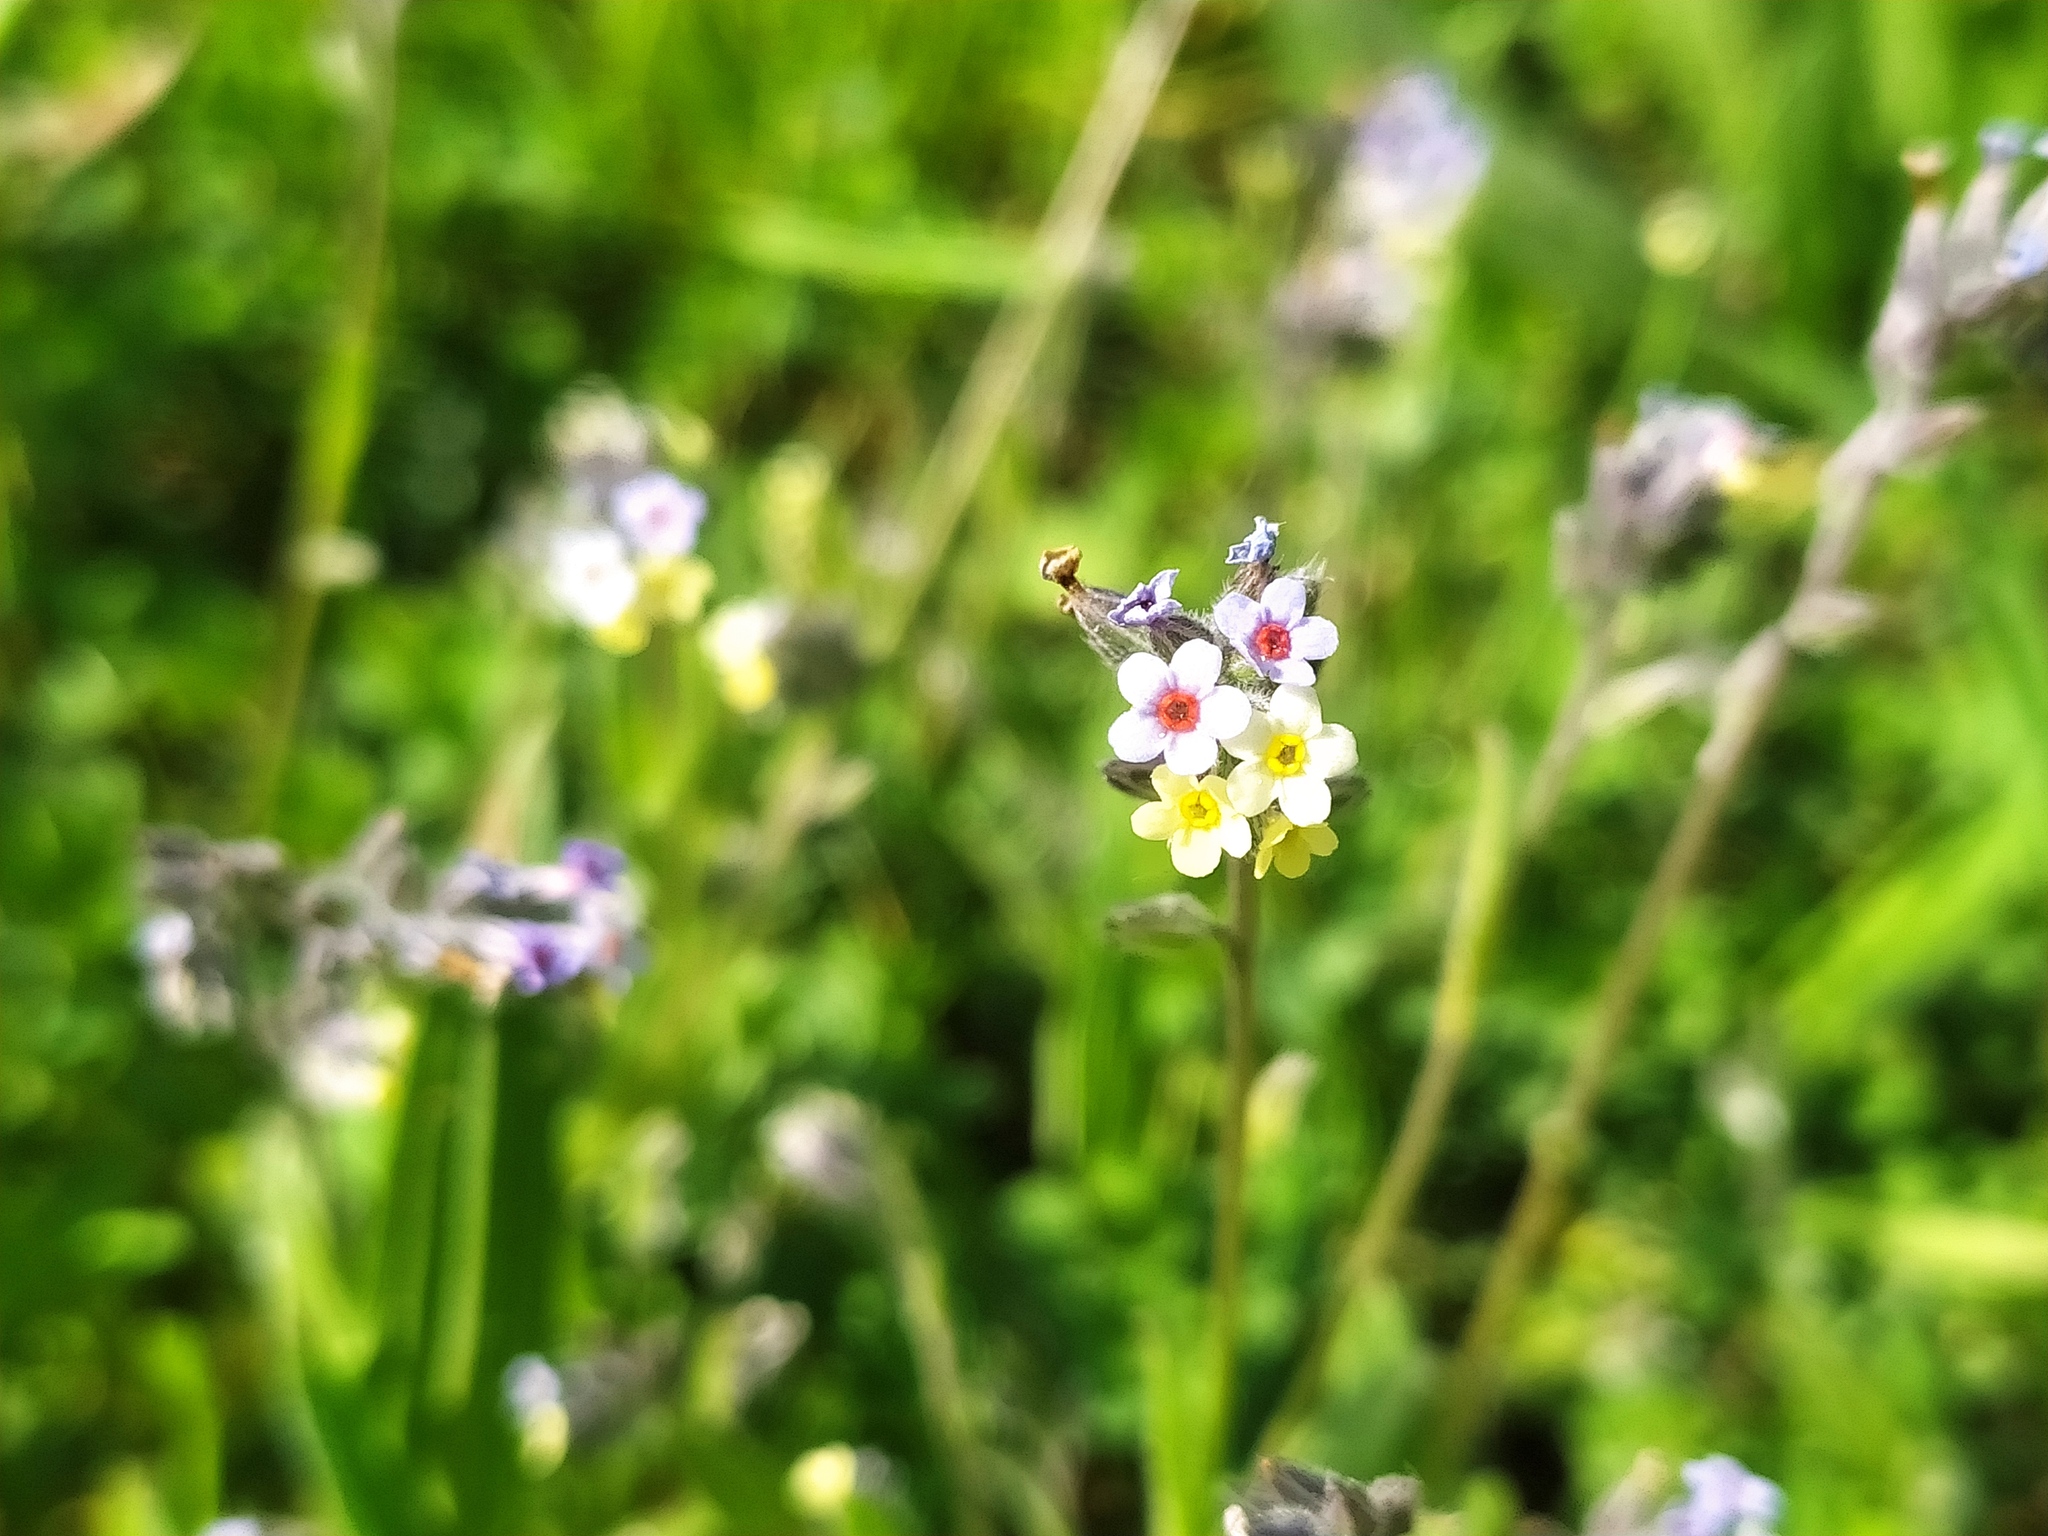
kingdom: Plantae
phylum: Tracheophyta
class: Magnoliopsida
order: Boraginales
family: Boraginaceae
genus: Myosotis
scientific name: Myosotis discolor
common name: Changing forget-me-not
